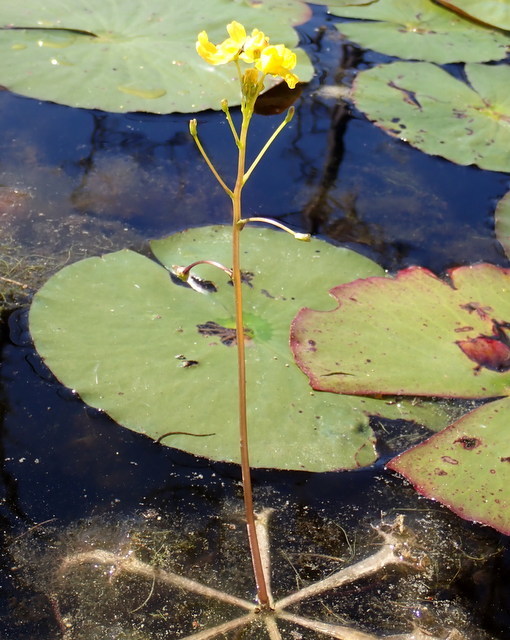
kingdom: Plantae
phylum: Tracheophyta
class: Magnoliopsida
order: Lamiales
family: Lentibulariaceae
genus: Utricularia
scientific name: Utricularia inflata
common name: Floating bladderwort
